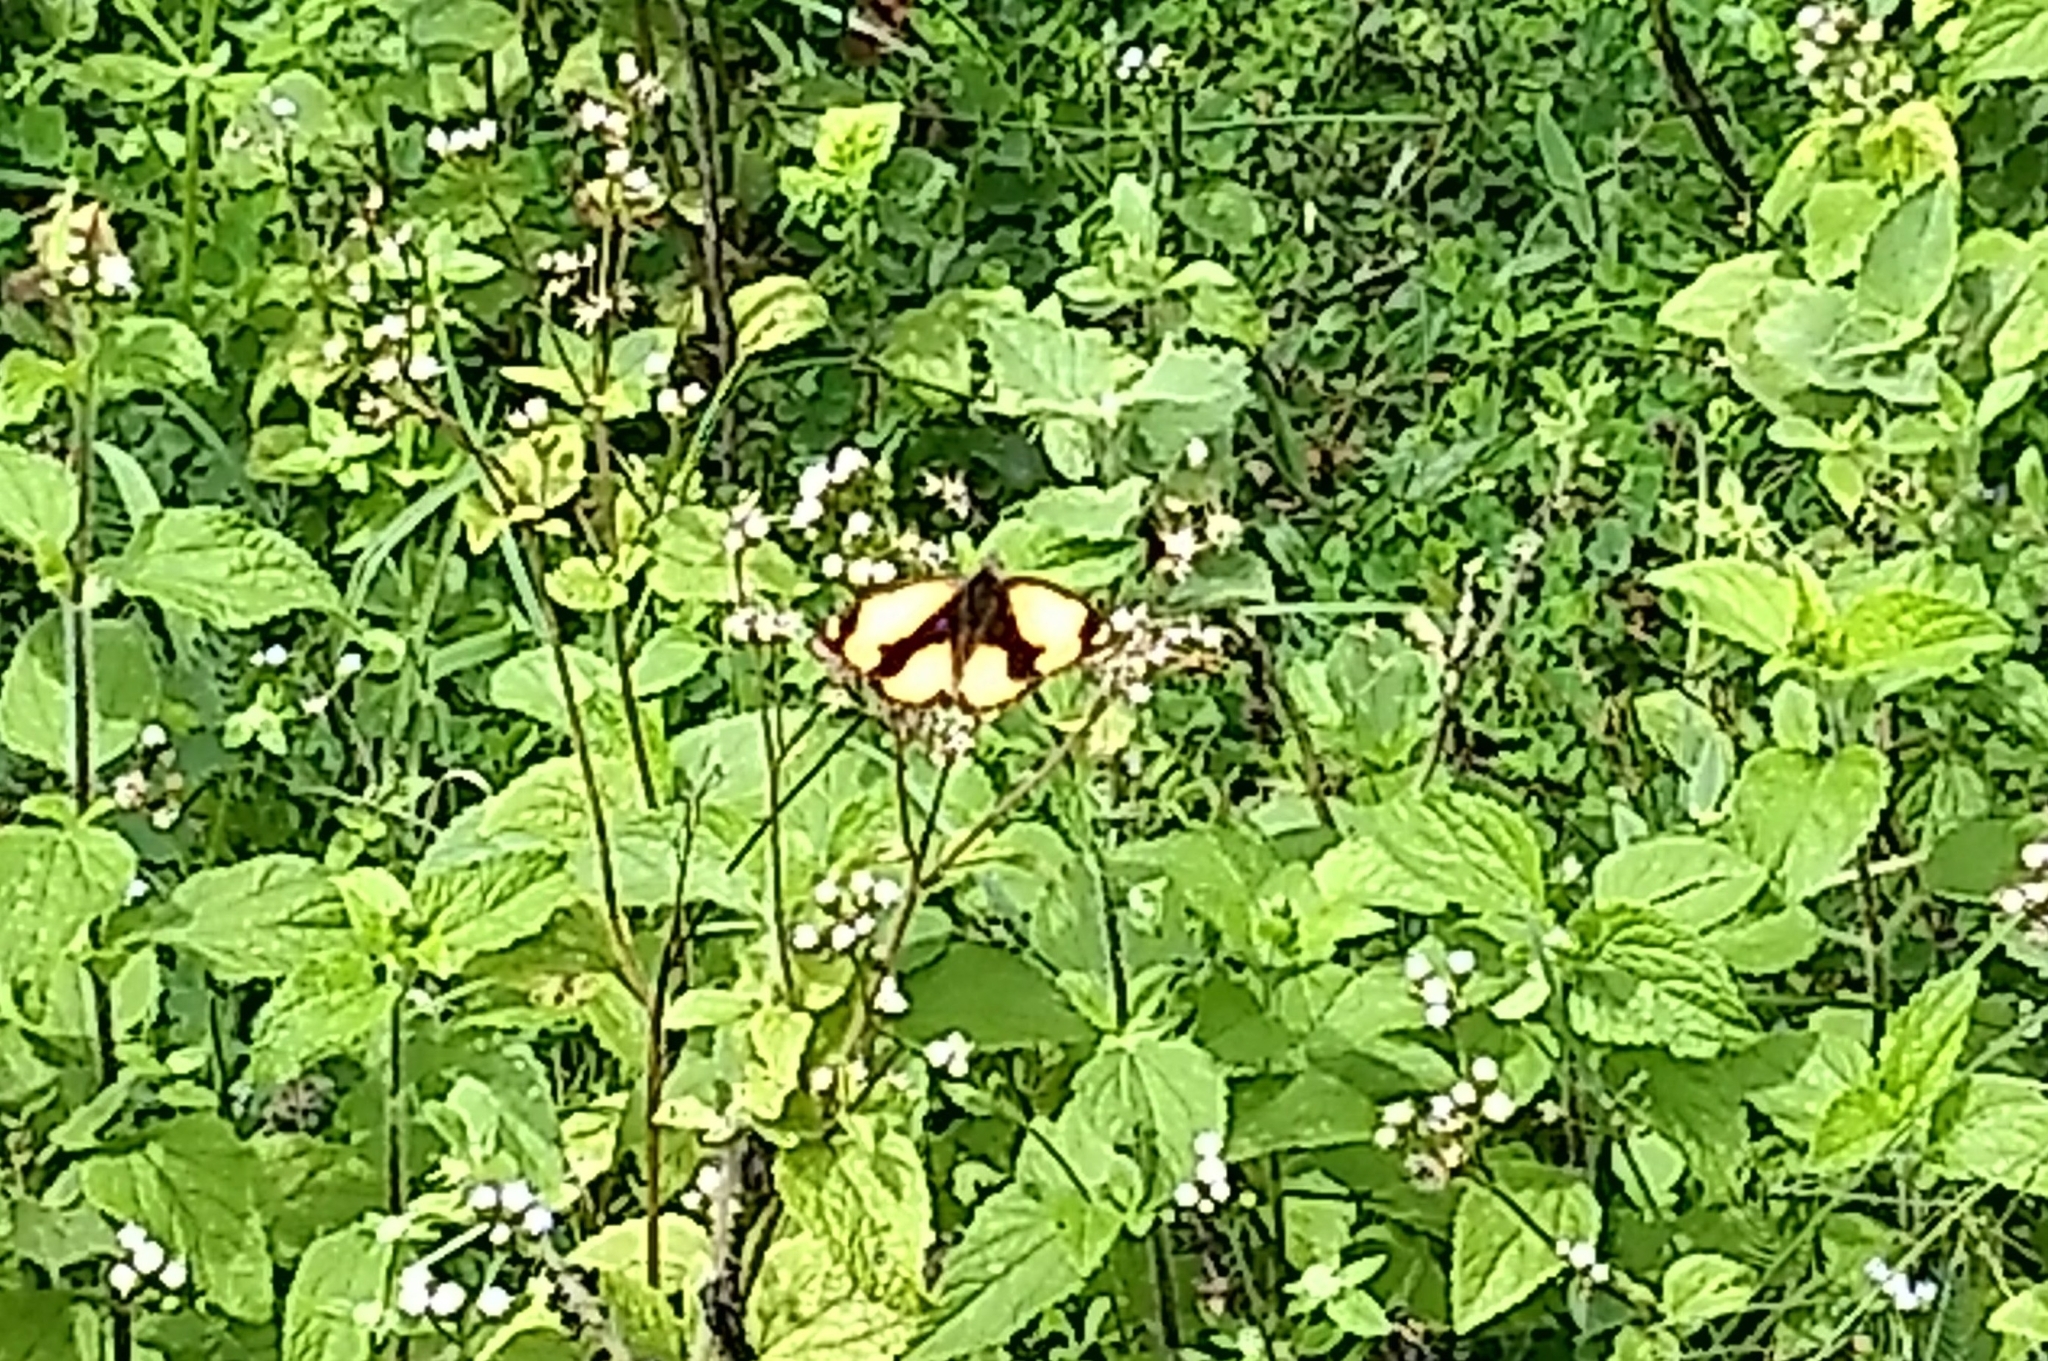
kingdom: Animalia
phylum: Arthropoda
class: Insecta
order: Lepidoptera
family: Nymphalidae
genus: Junonia
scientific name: Junonia hierta
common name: Yellow pansy
